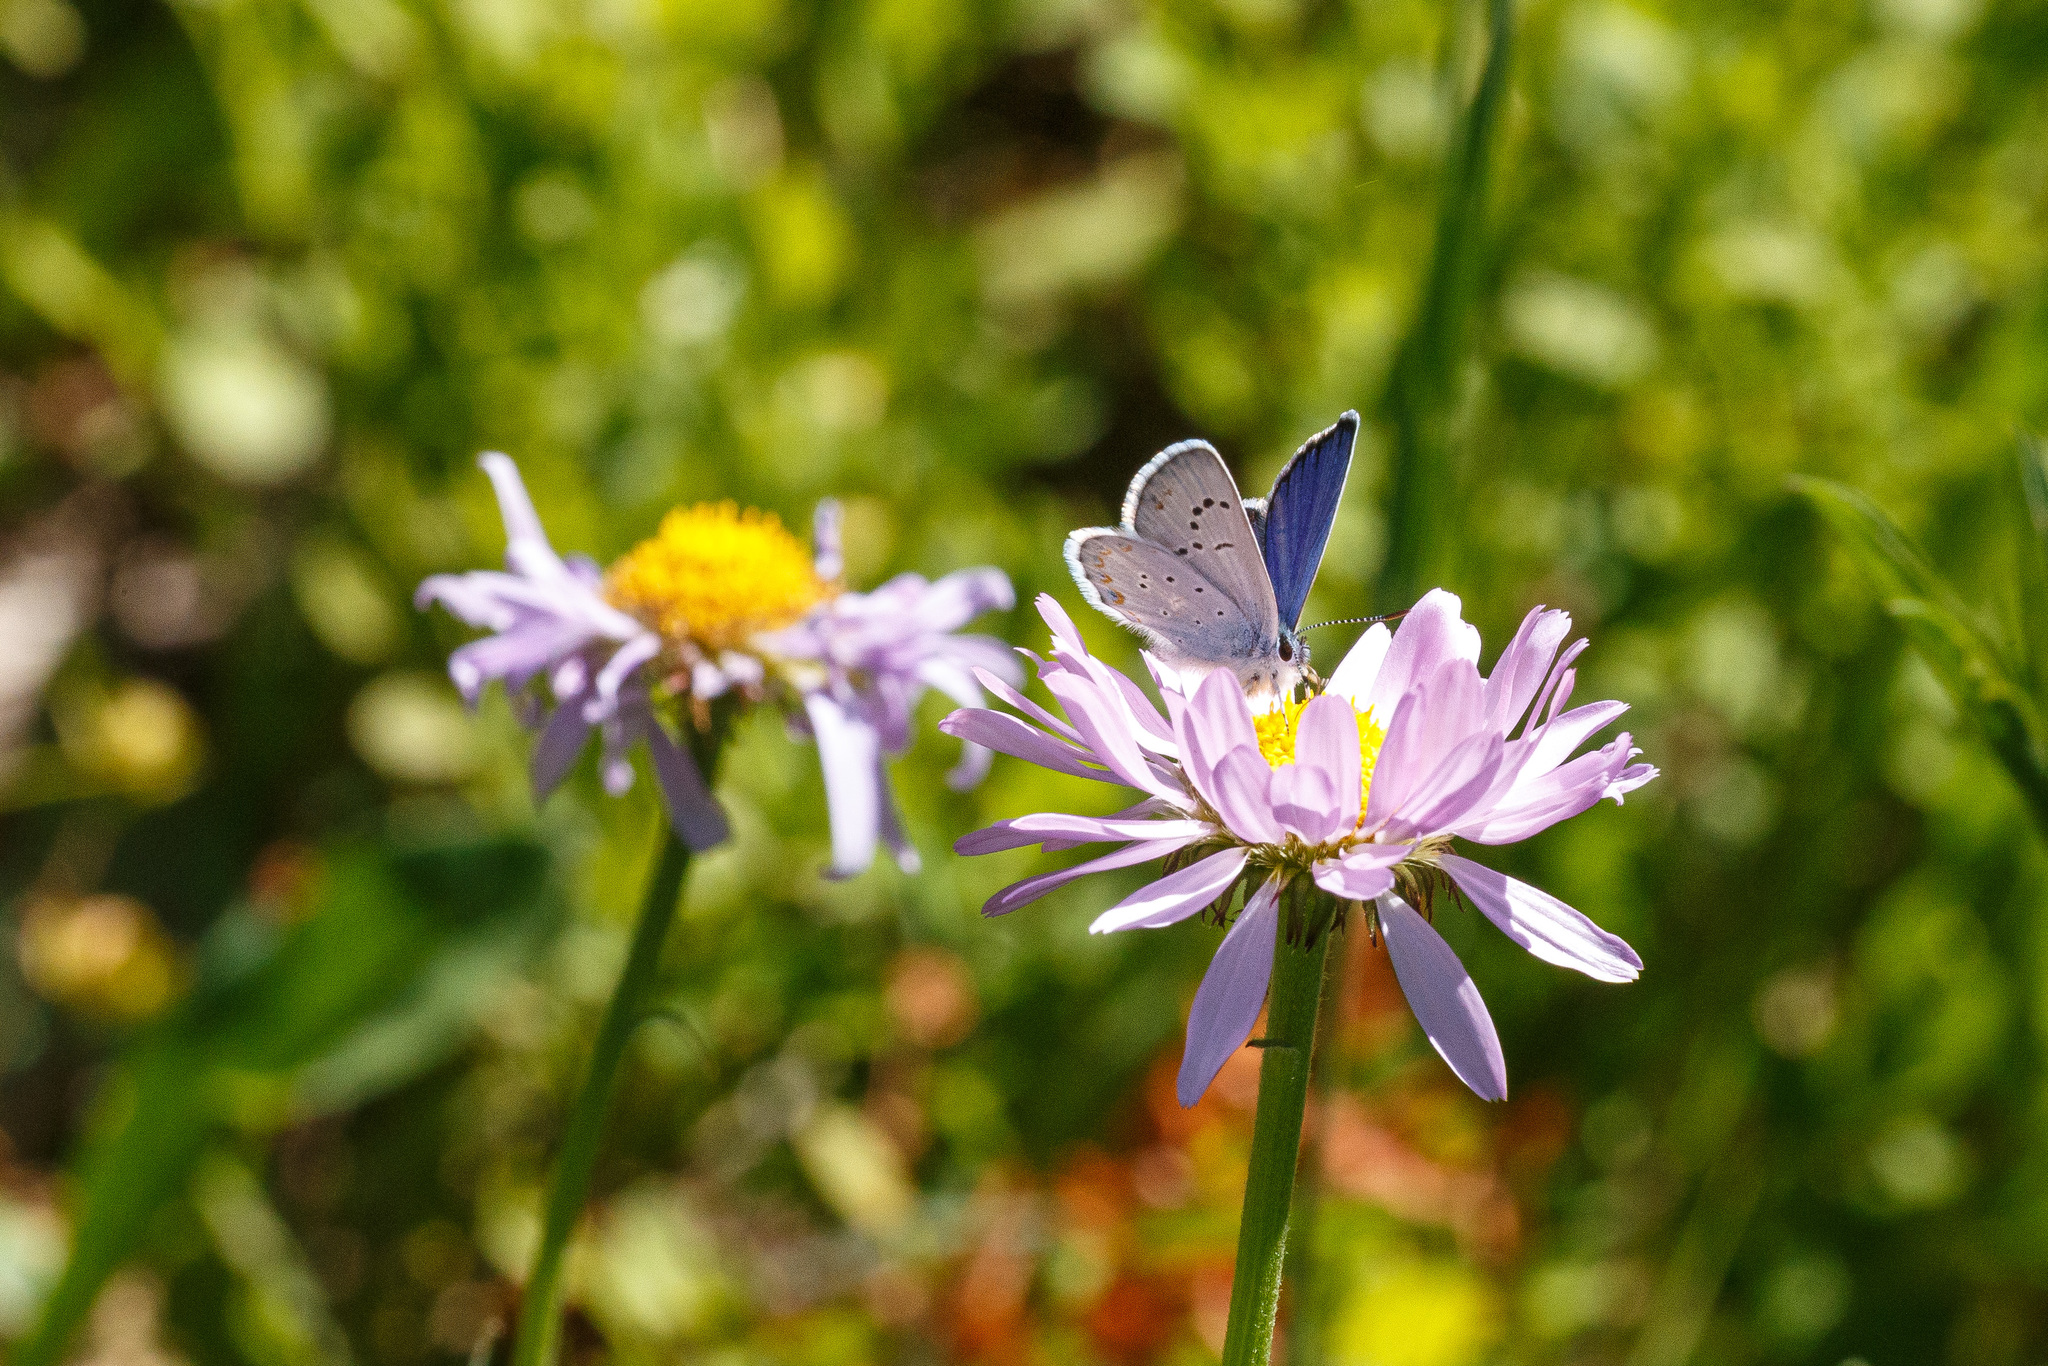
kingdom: Animalia
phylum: Arthropoda
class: Insecta
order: Lepidoptera
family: Lycaenidae
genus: Lycaeides
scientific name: Lycaeides anna
